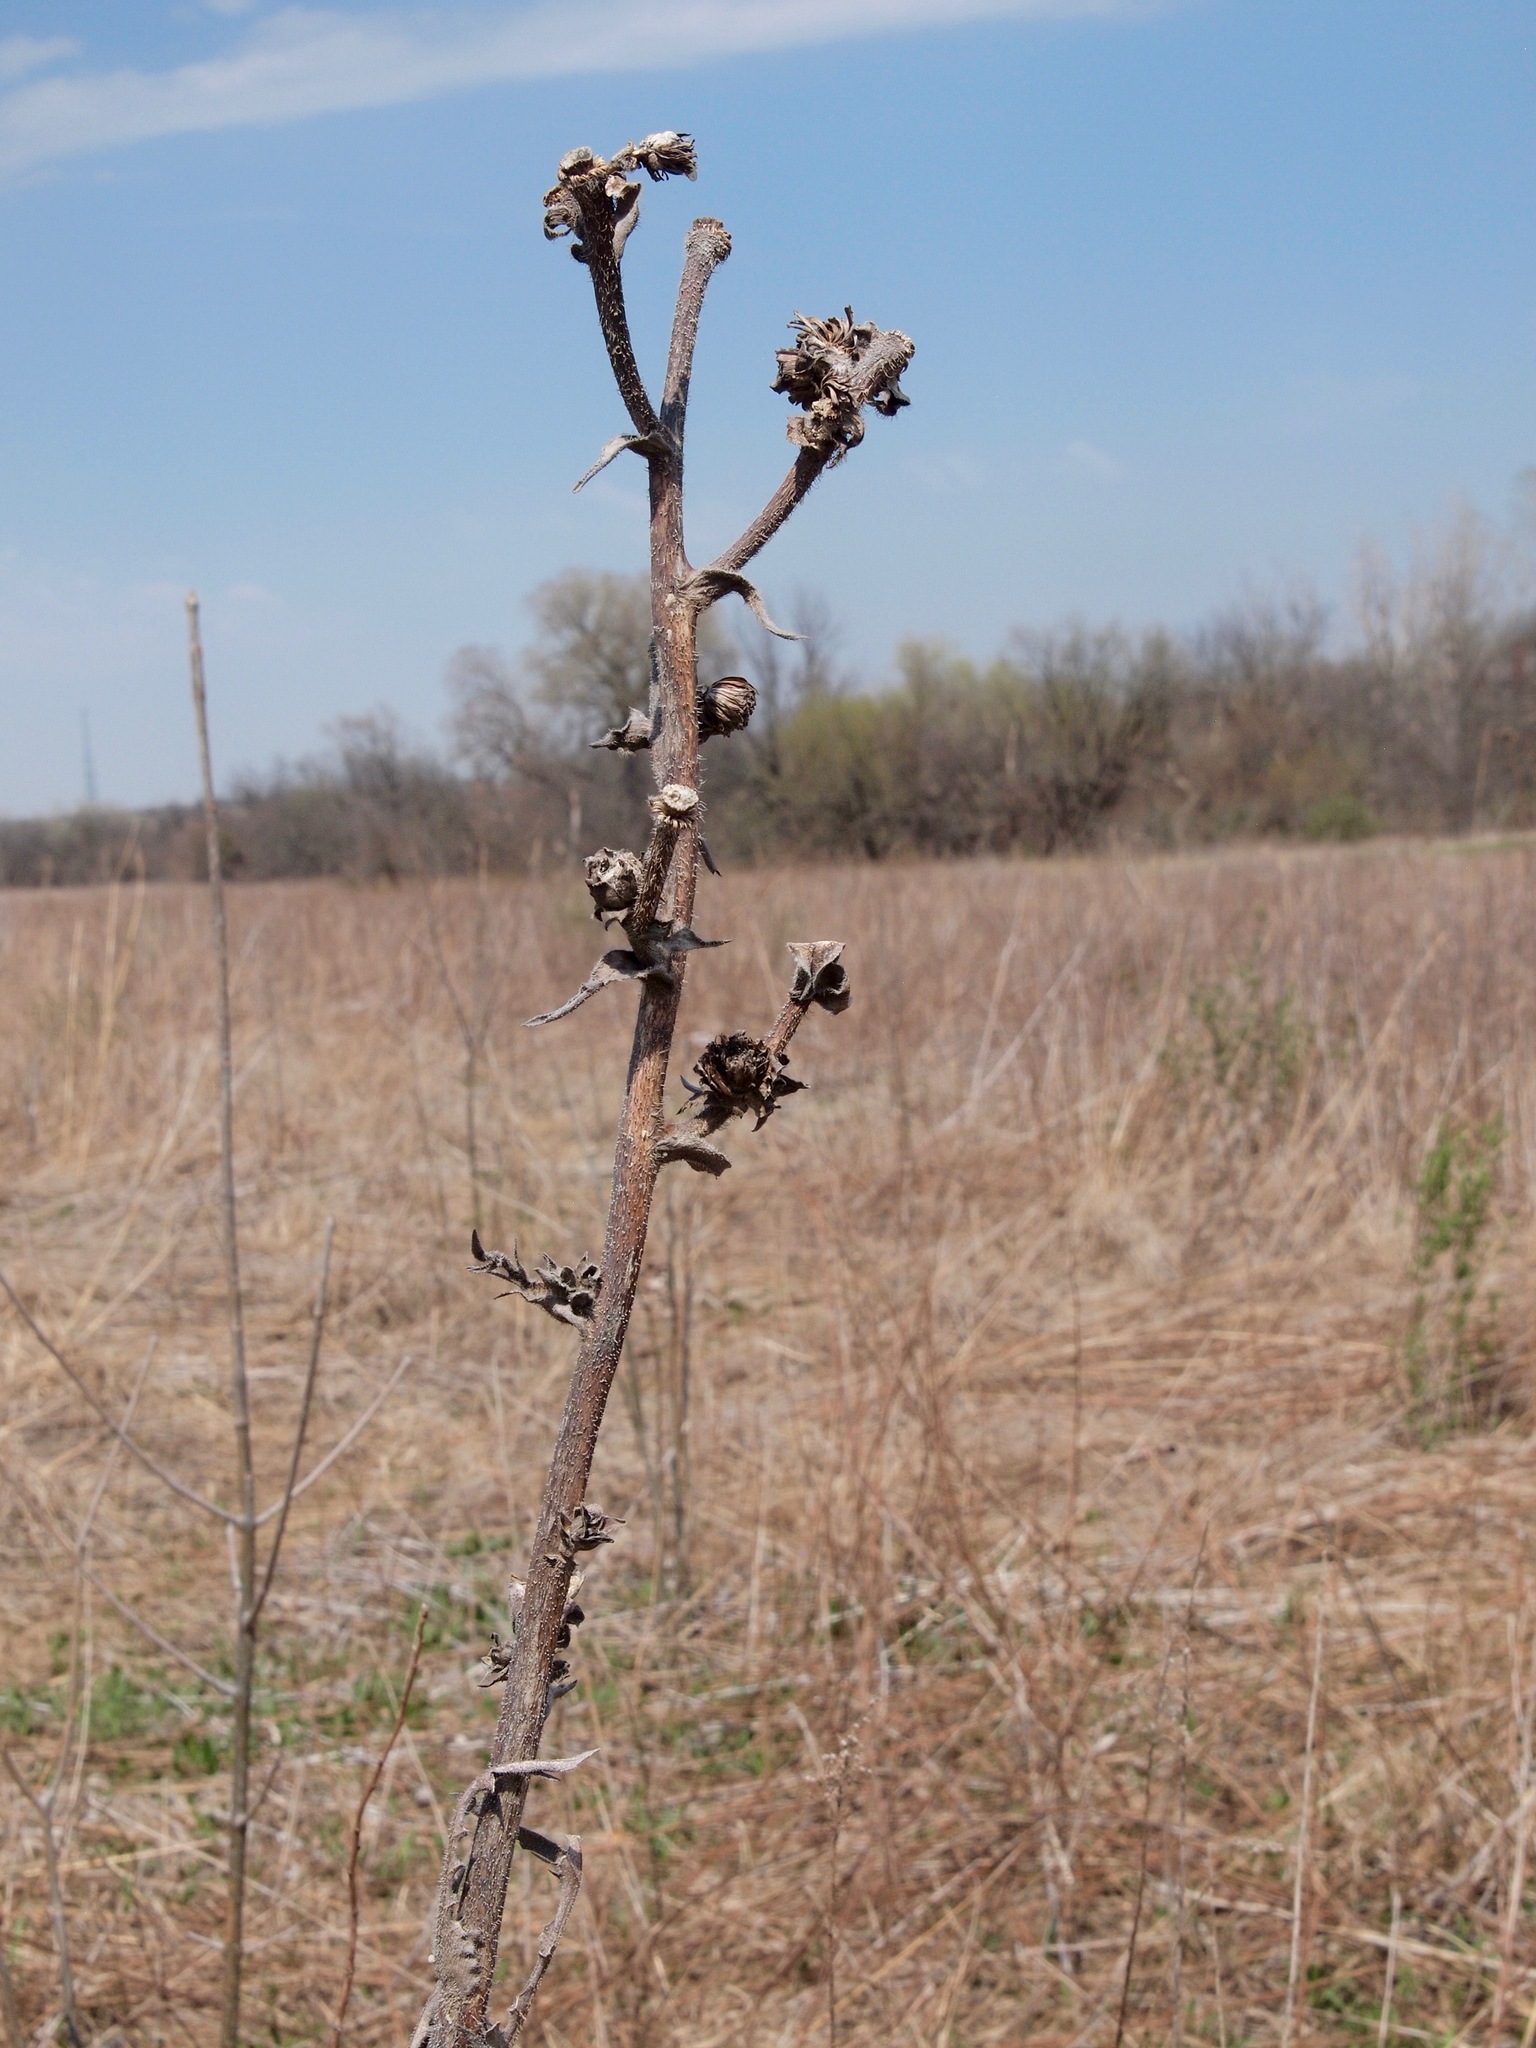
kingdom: Plantae
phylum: Tracheophyta
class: Magnoliopsida
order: Asterales
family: Asteraceae
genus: Silphium
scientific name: Silphium laciniatum
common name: Polarplant
